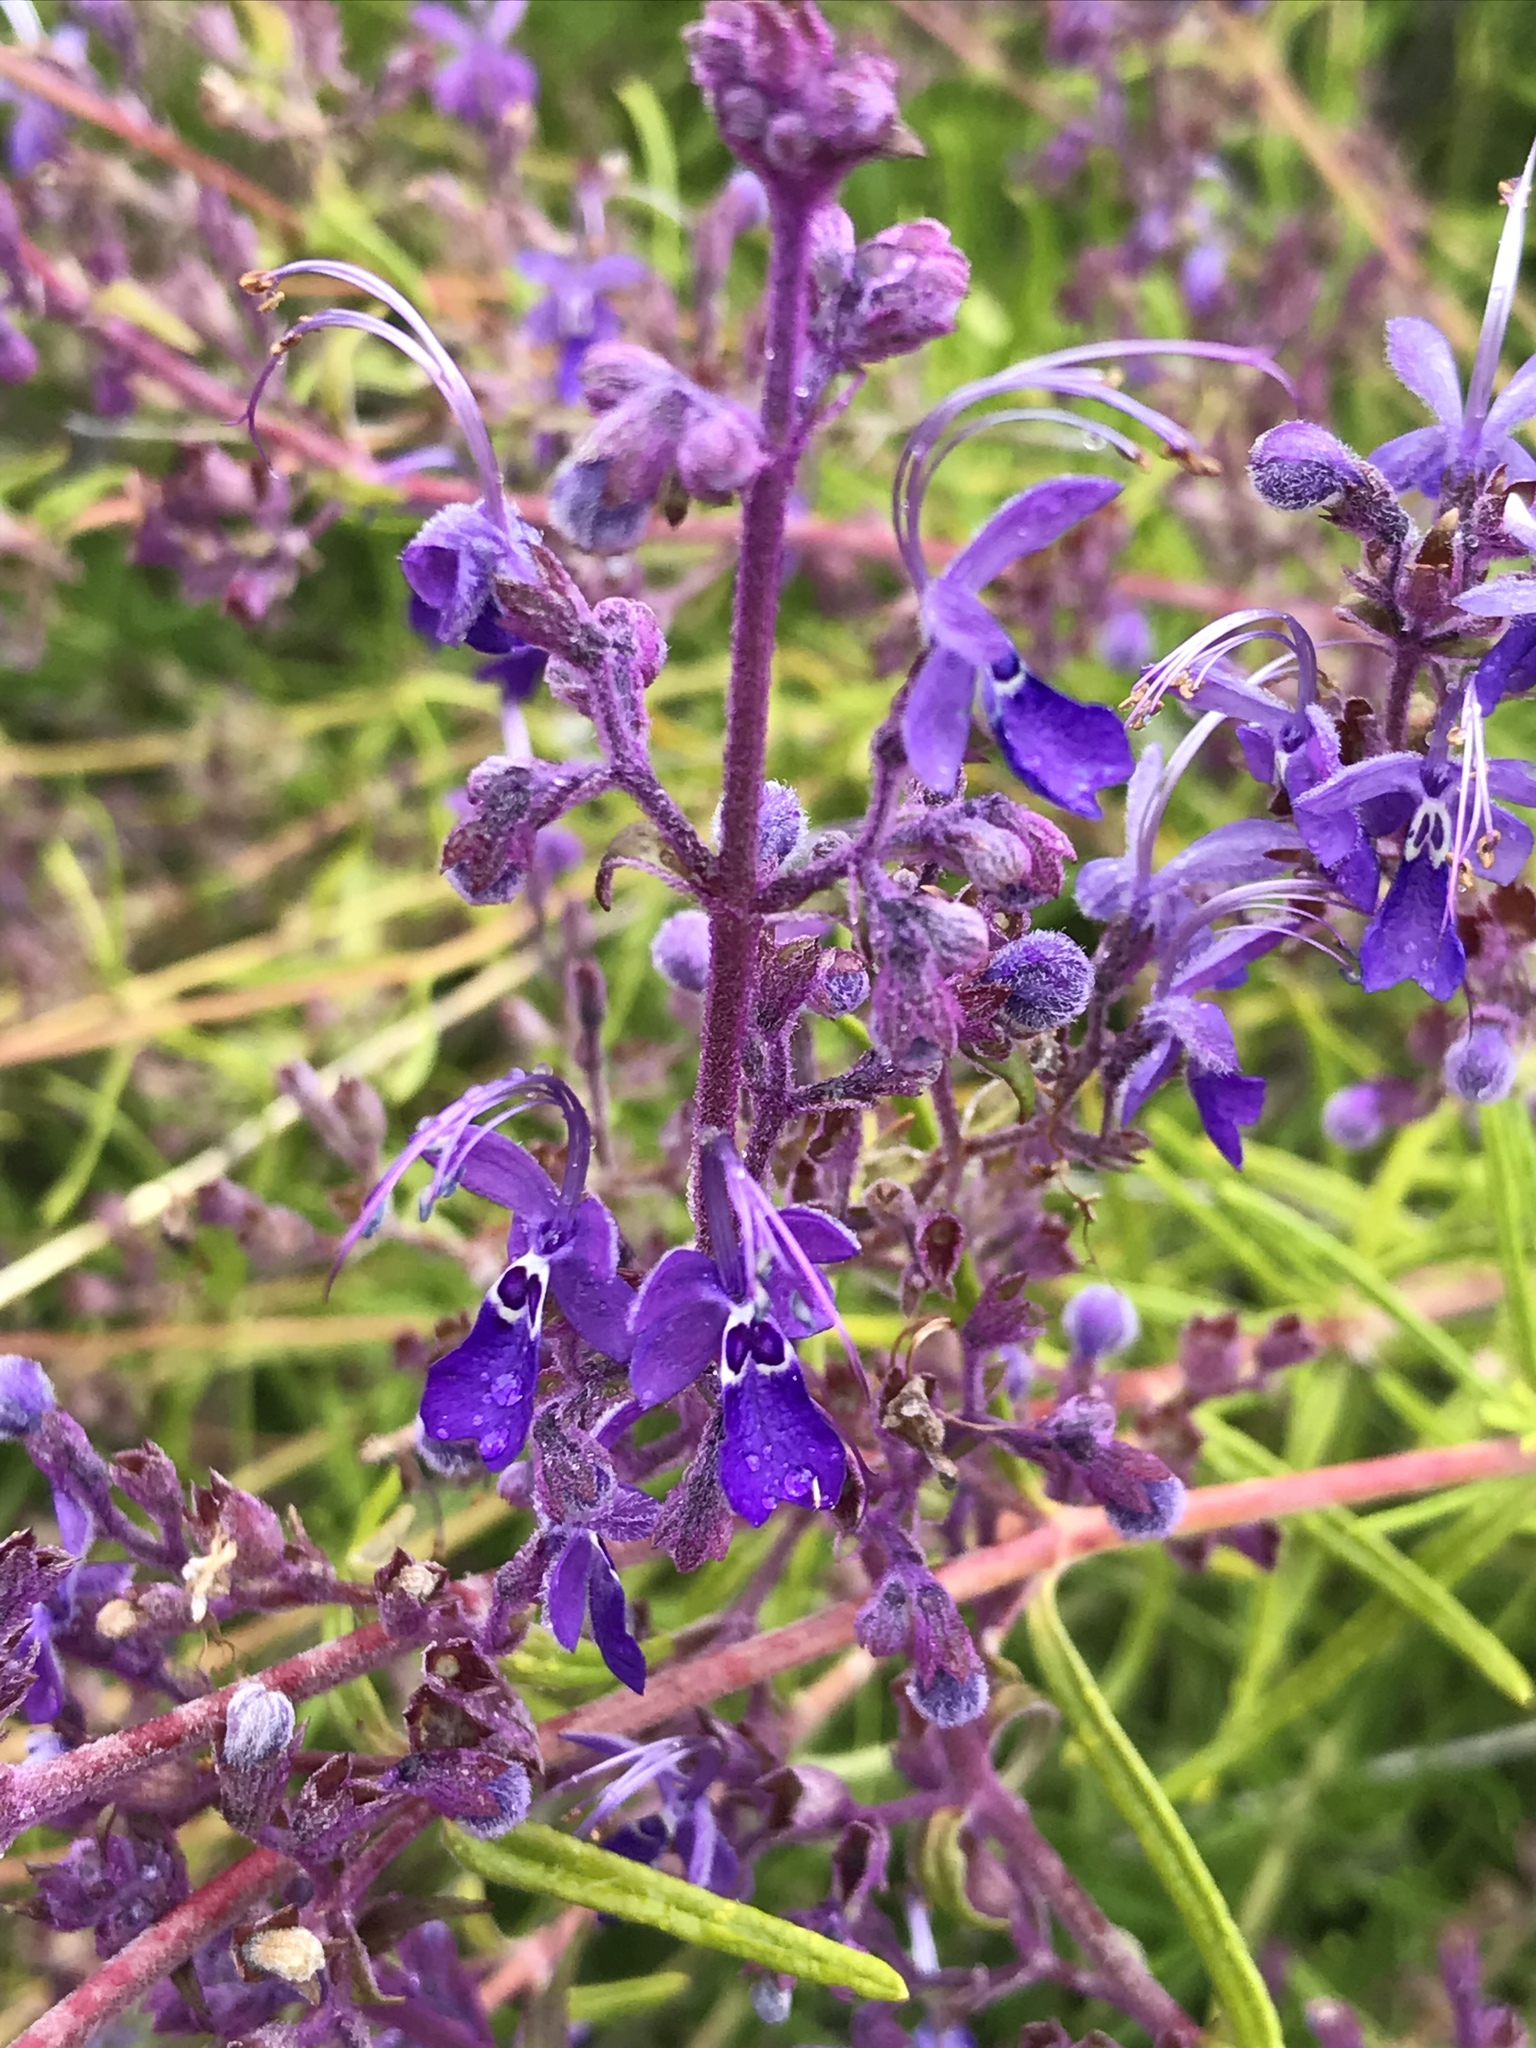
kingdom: Plantae
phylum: Tracheophyta
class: Magnoliopsida
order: Lamiales
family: Lamiaceae
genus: Trichostema
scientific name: Trichostema parishii
